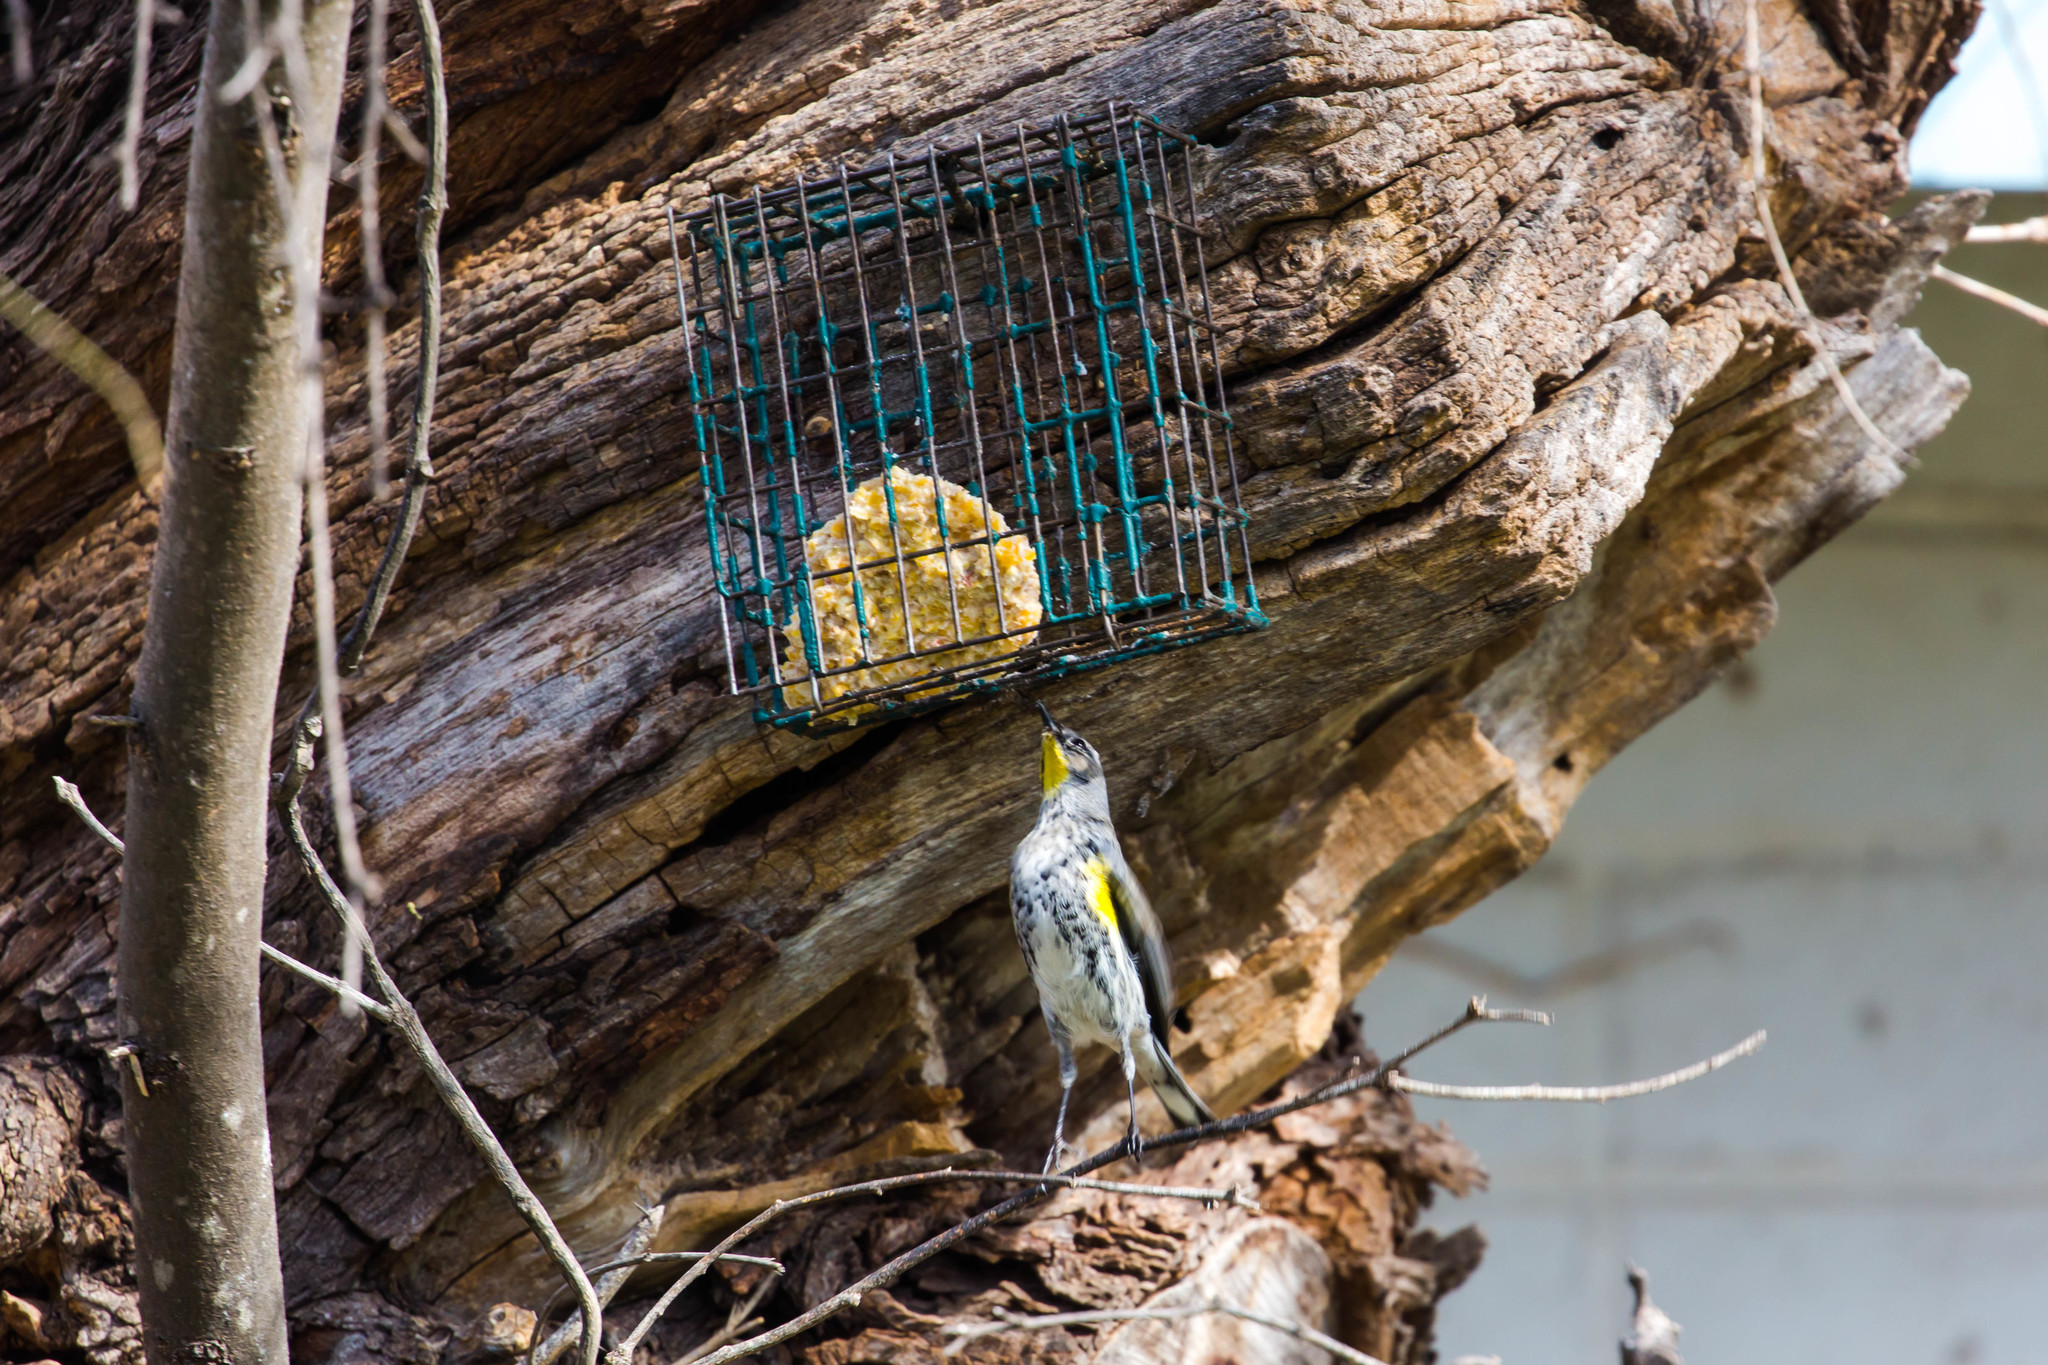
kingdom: Animalia
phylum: Chordata
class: Aves
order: Passeriformes
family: Parulidae
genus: Setophaga
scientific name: Setophaga coronata
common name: Myrtle warbler
